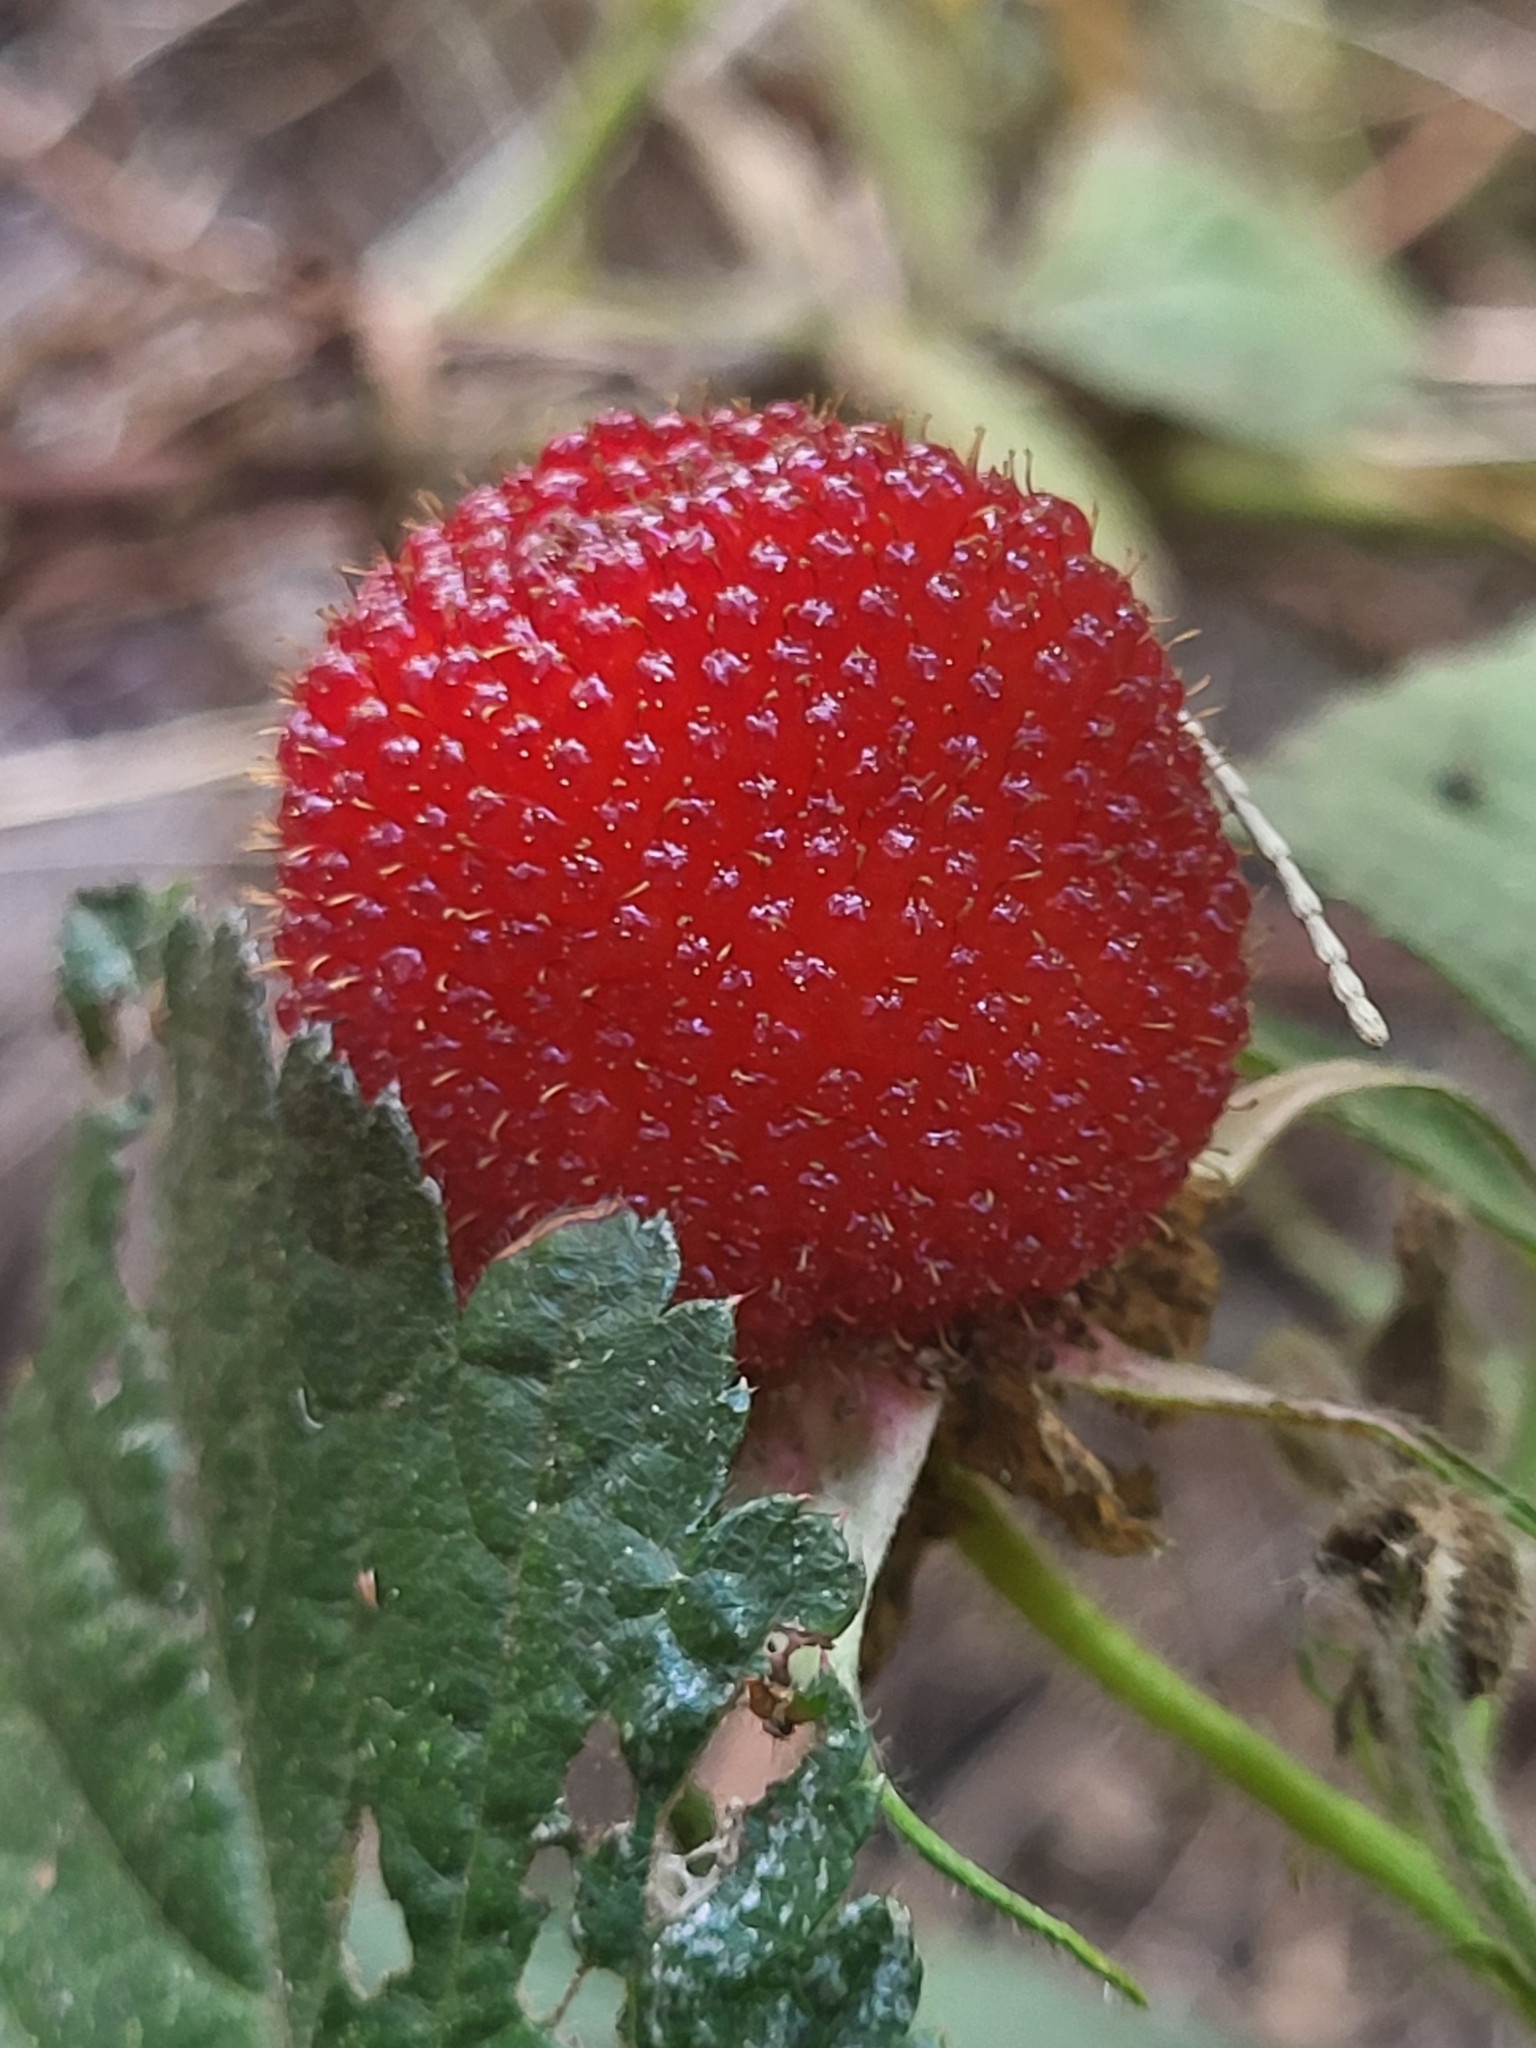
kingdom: Plantae
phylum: Tracheophyta
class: Magnoliopsida
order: Rosales
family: Rosaceae
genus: Rubus
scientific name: Rubus rosifolius
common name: Roseleaf raspberry
